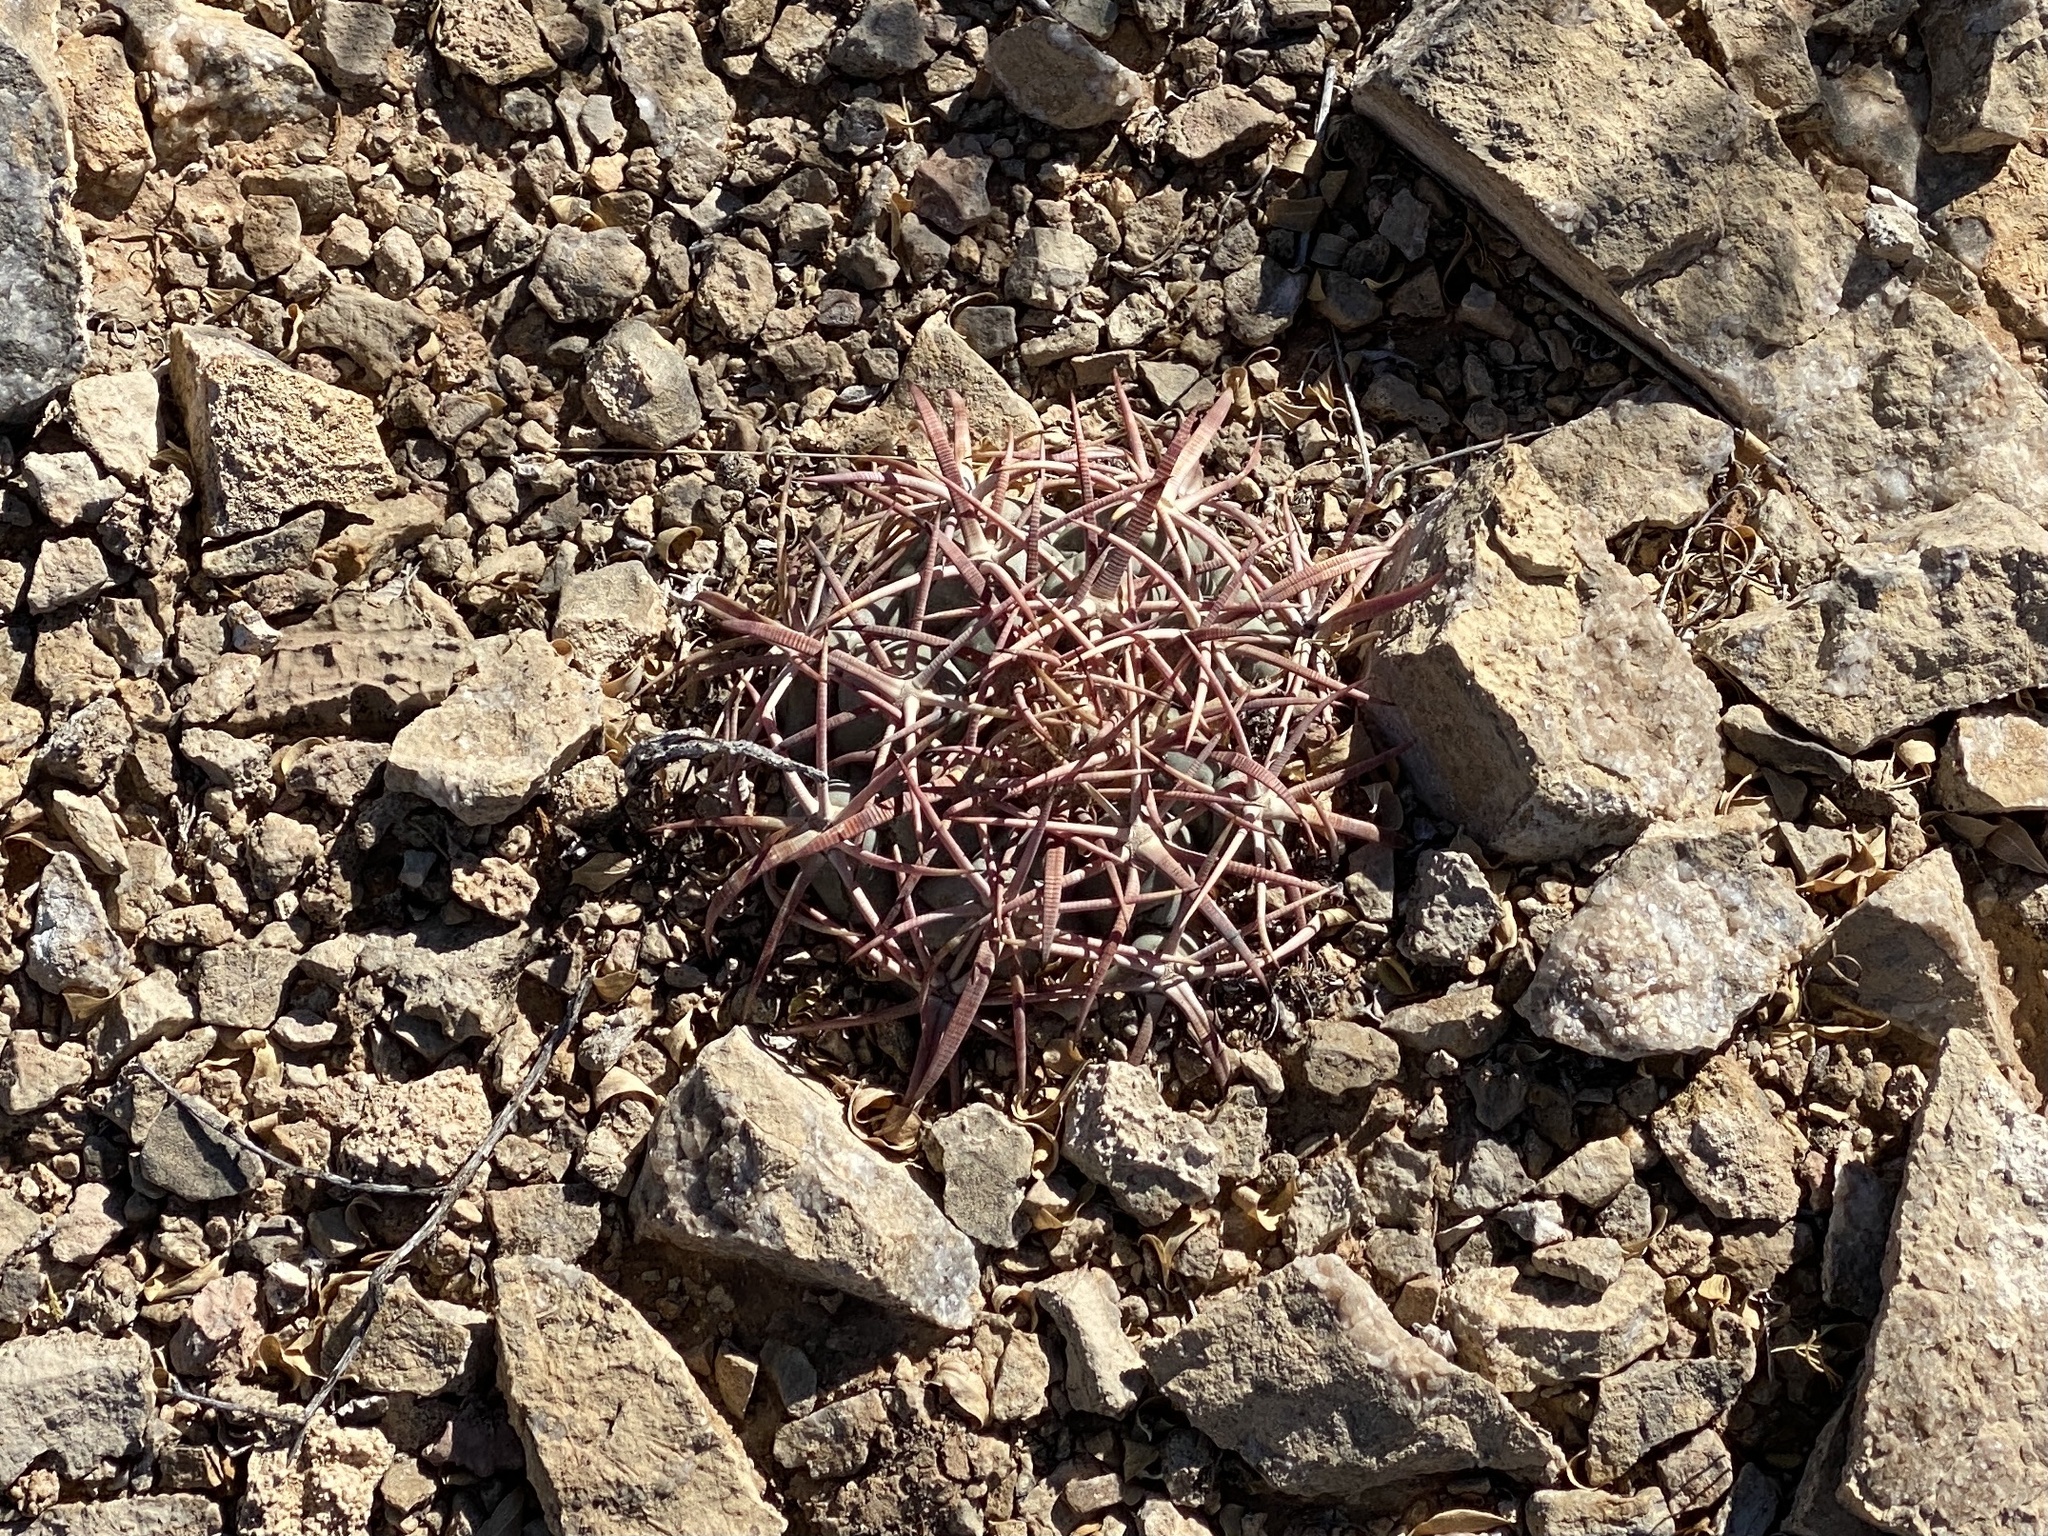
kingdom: Plantae
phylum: Tracheophyta
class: Magnoliopsida
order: Caryophyllales
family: Cactaceae
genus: Echinocactus
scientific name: Echinocactus horizonthalonius
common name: Devilshead
